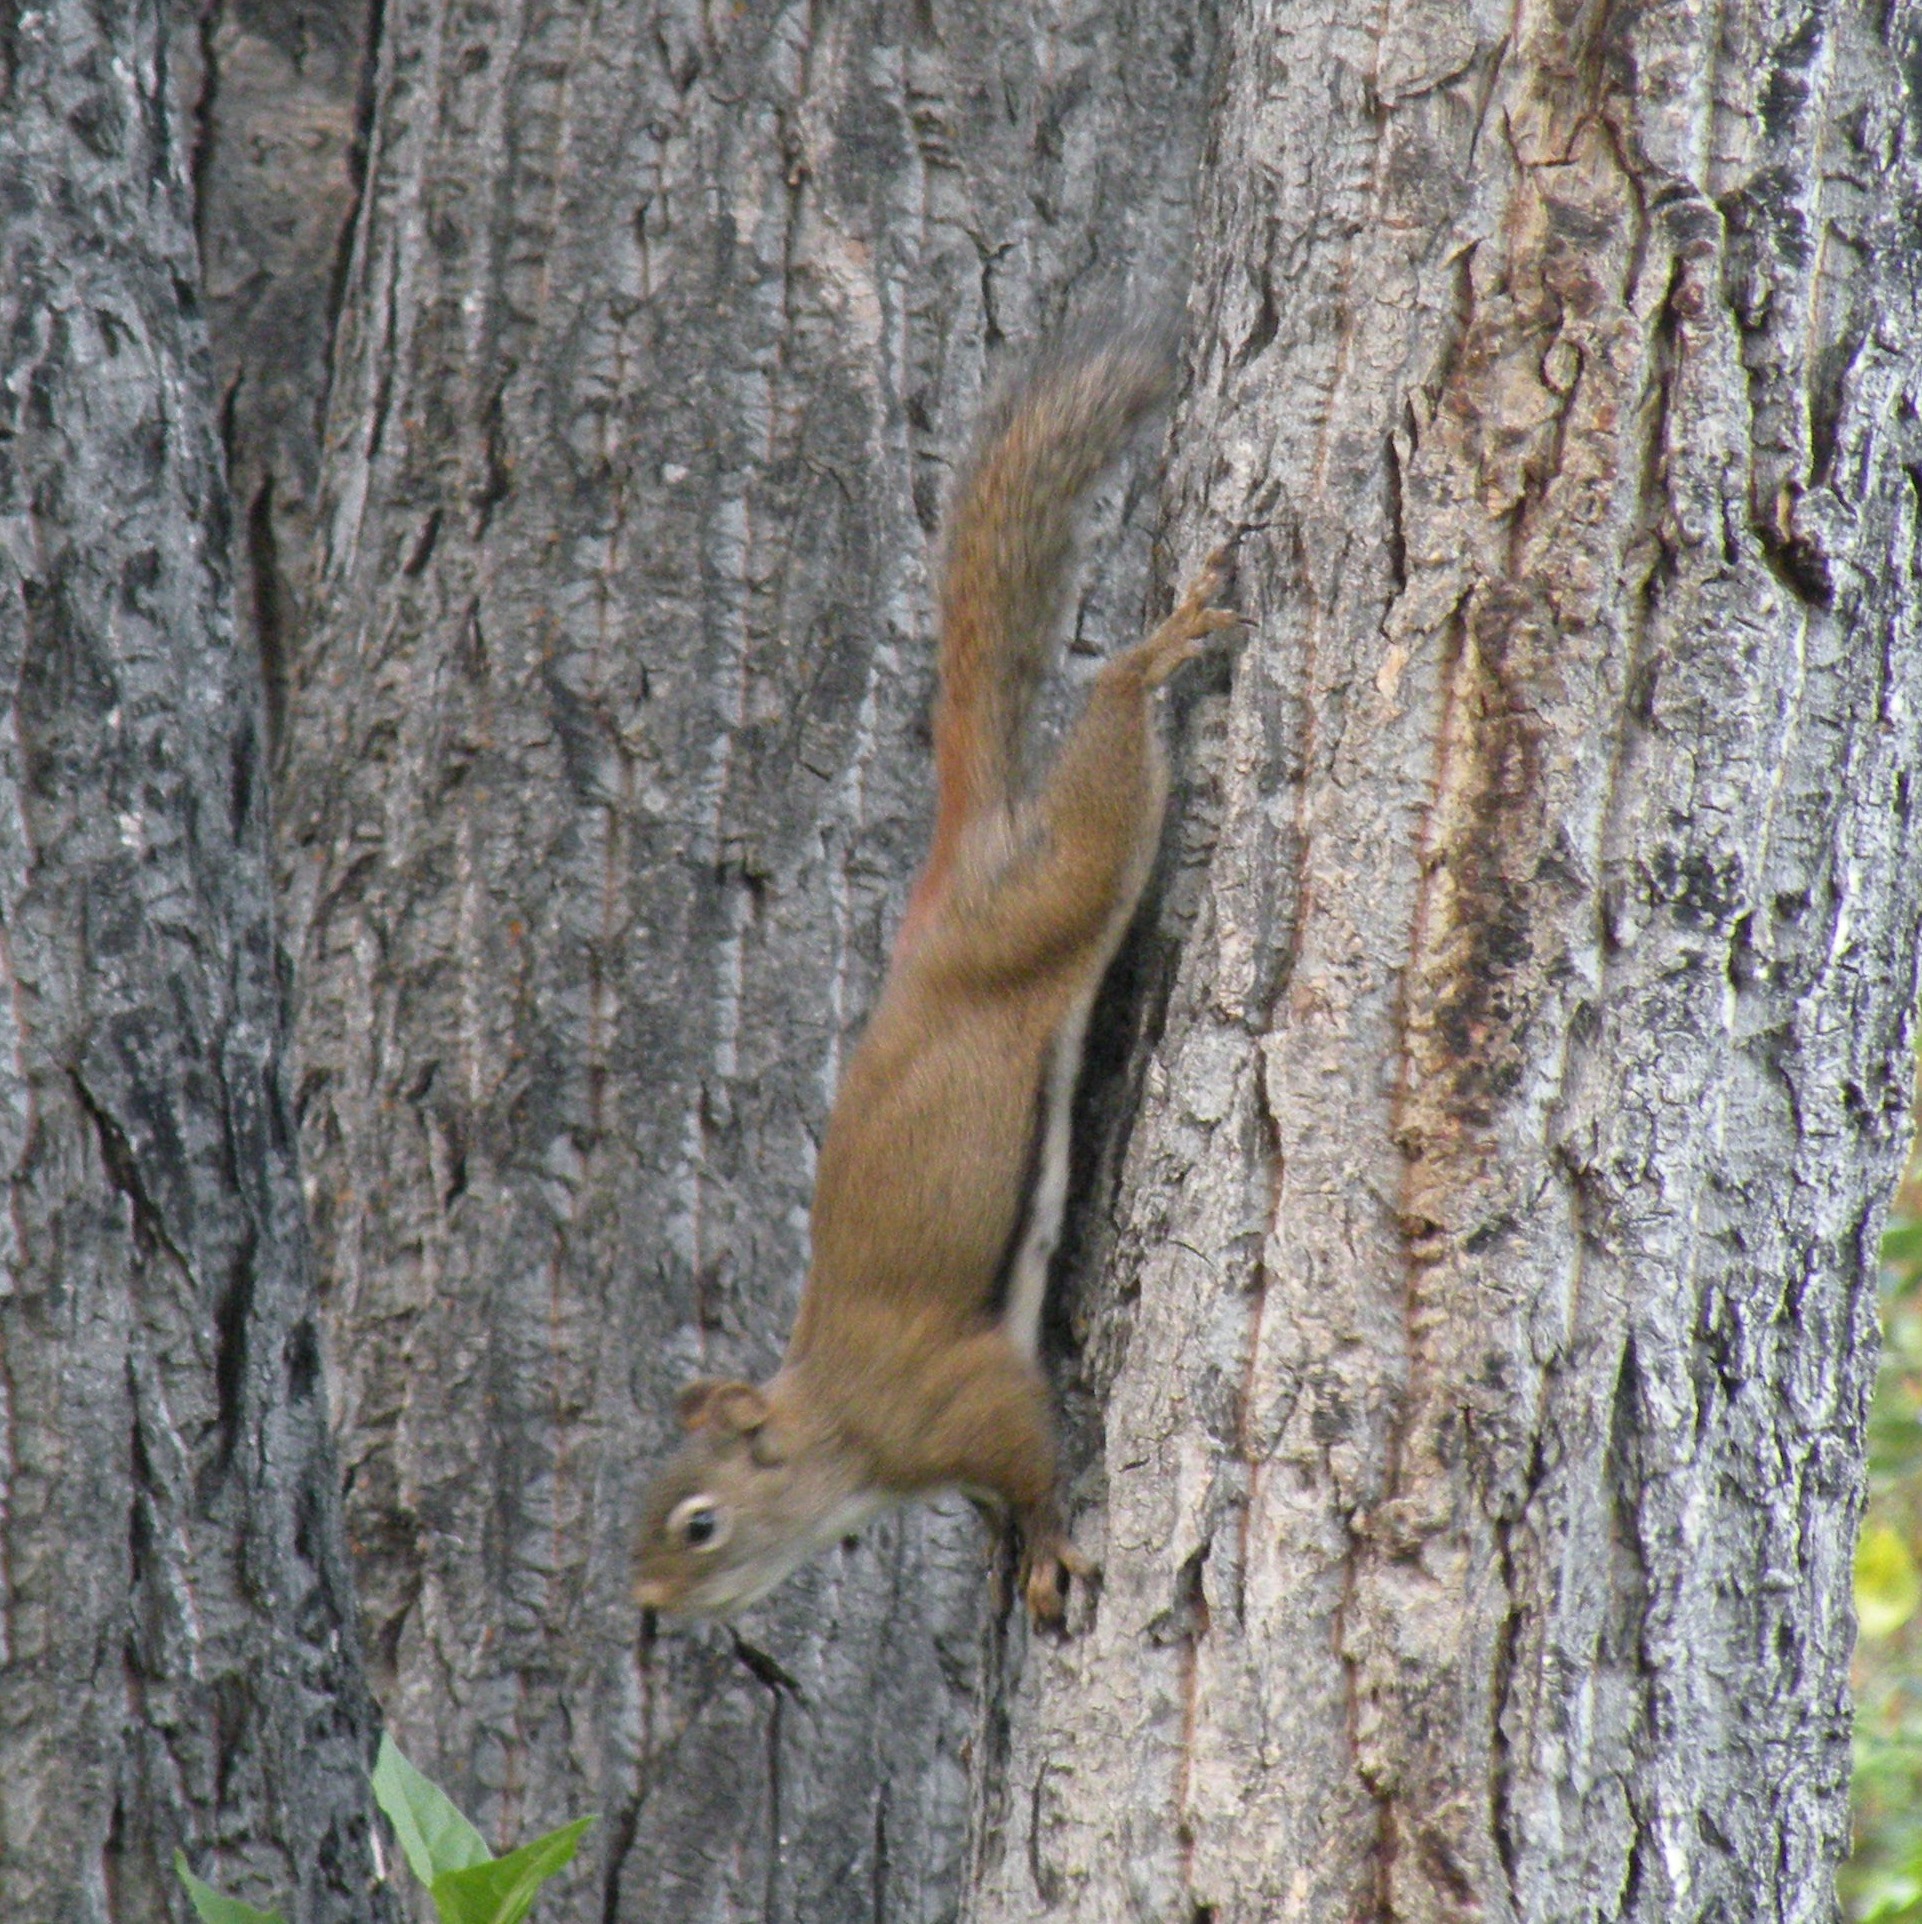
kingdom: Animalia
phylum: Chordata
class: Mammalia
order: Rodentia
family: Sciuridae
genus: Tamiasciurus
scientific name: Tamiasciurus hudsonicus
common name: Red squirrel
